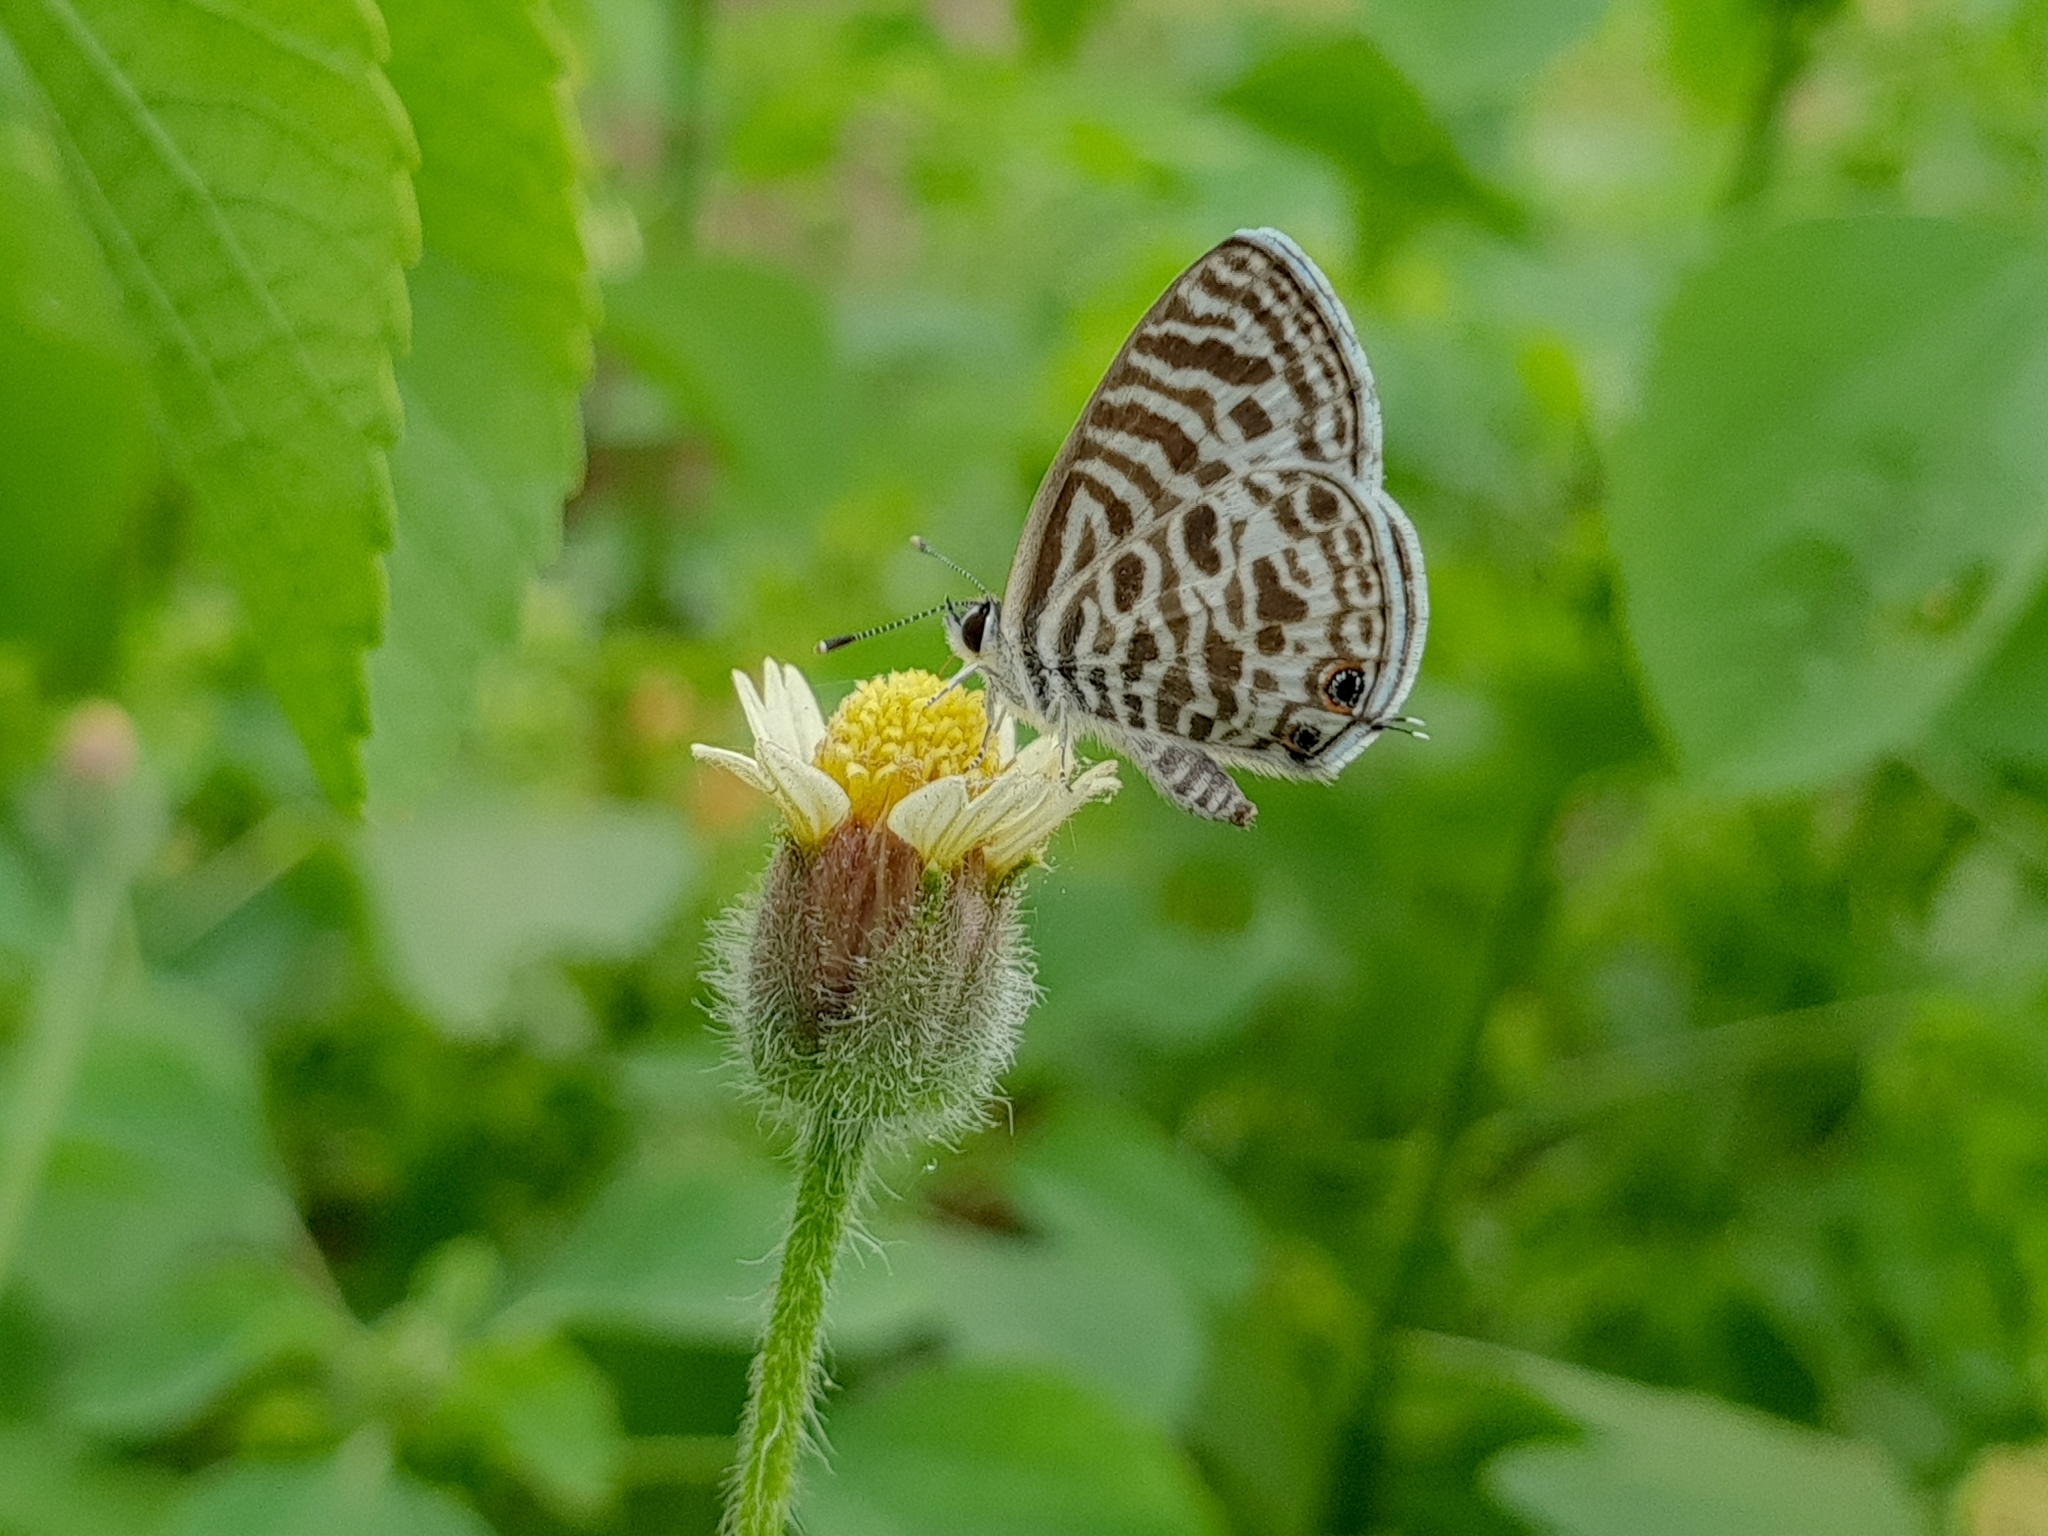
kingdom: Animalia
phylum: Arthropoda
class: Insecta
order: Lepidoptera
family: Lycaenidae
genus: Leptotes
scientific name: Leptotes plinius
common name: Zebra blue
